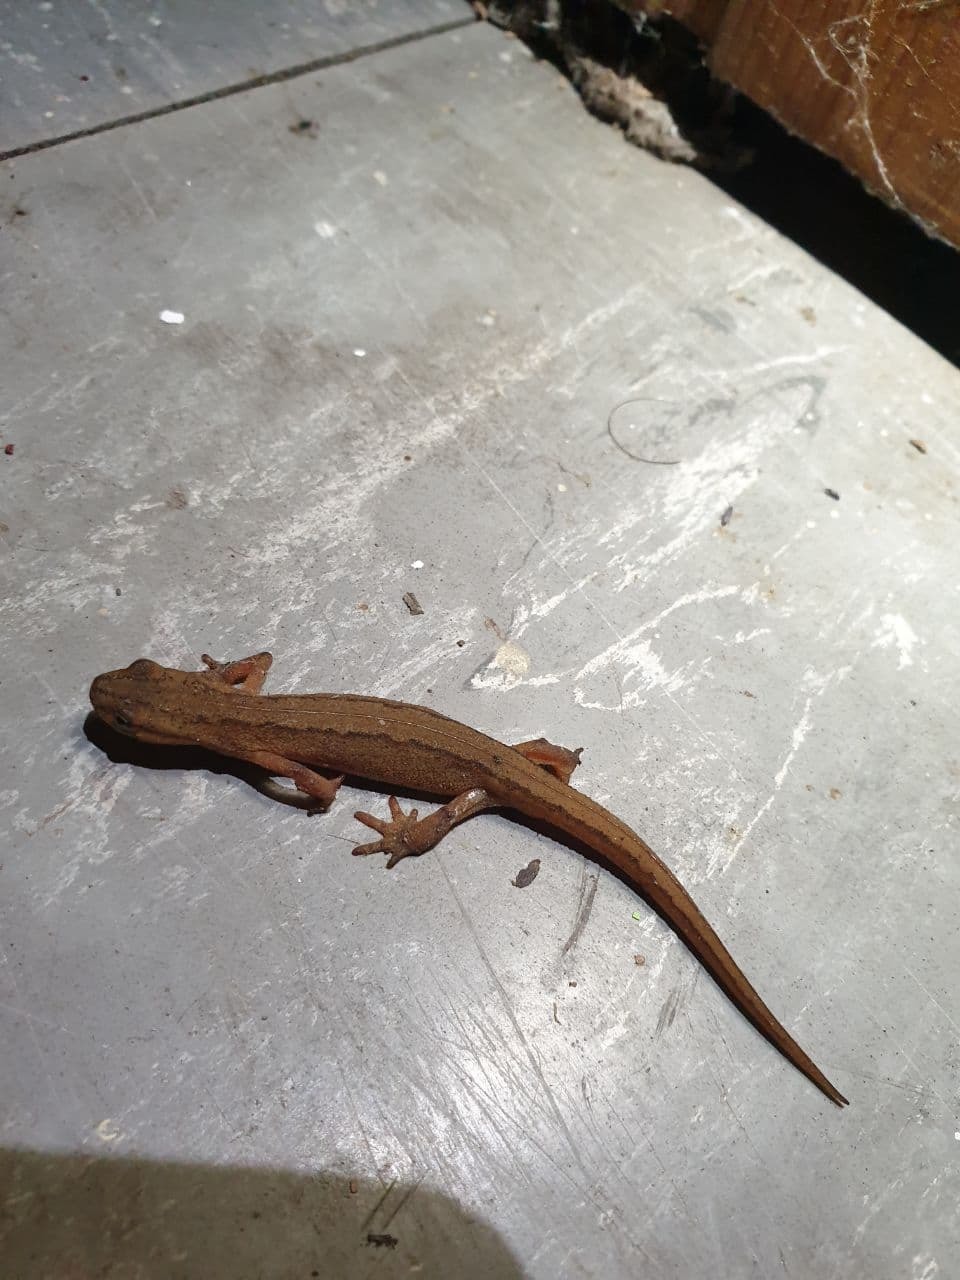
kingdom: Animalia
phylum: Chordata
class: Amphibia
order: Caudata
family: Salamandridae
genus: Lissotriton
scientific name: Lissotriton vulgaris
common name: Smooth newt
